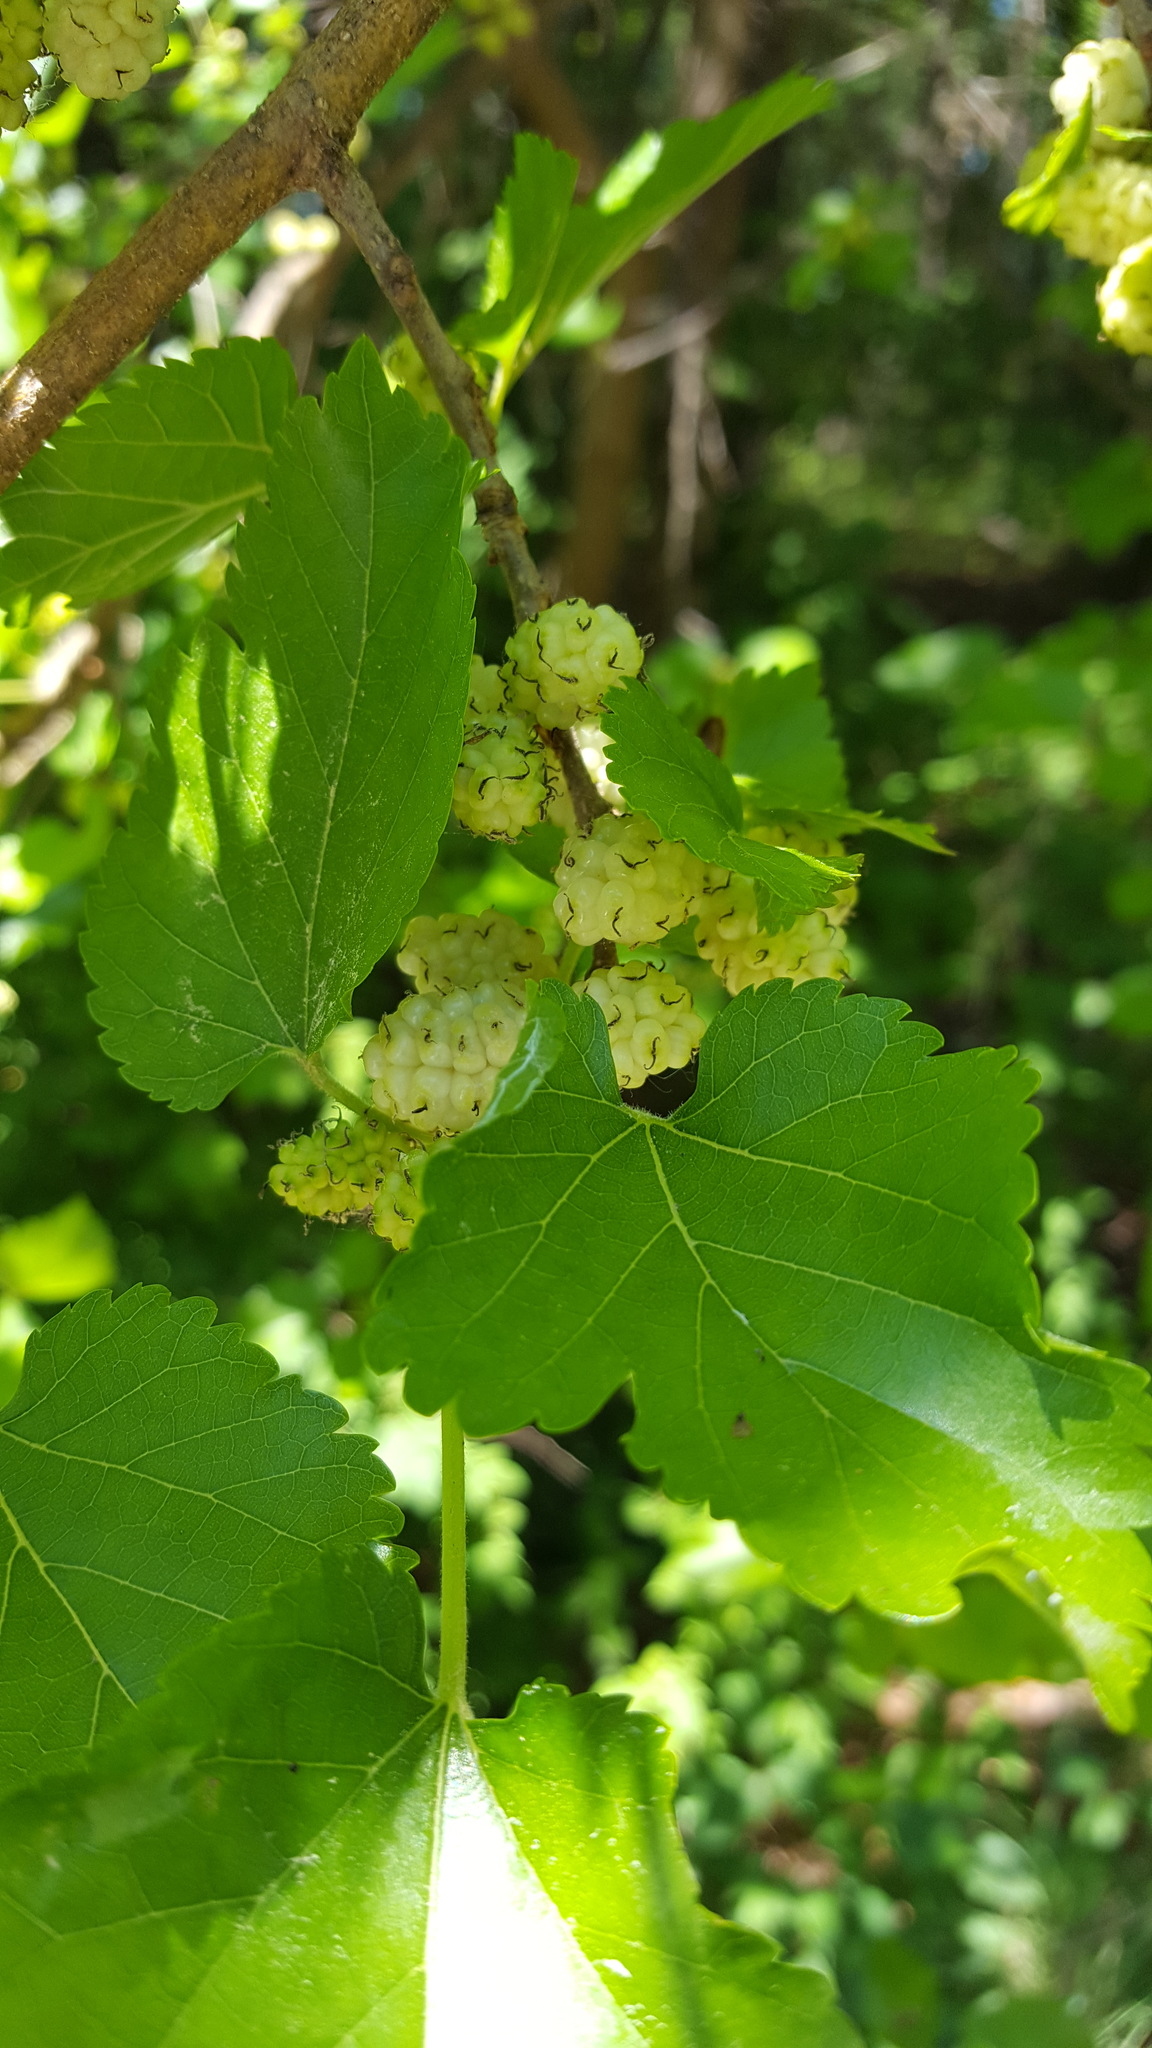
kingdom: Plantae
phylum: Tracheophyta
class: Magnoliopsida
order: Rosales
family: Moraceae
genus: Morus
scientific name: Morus alba
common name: White mulberry
